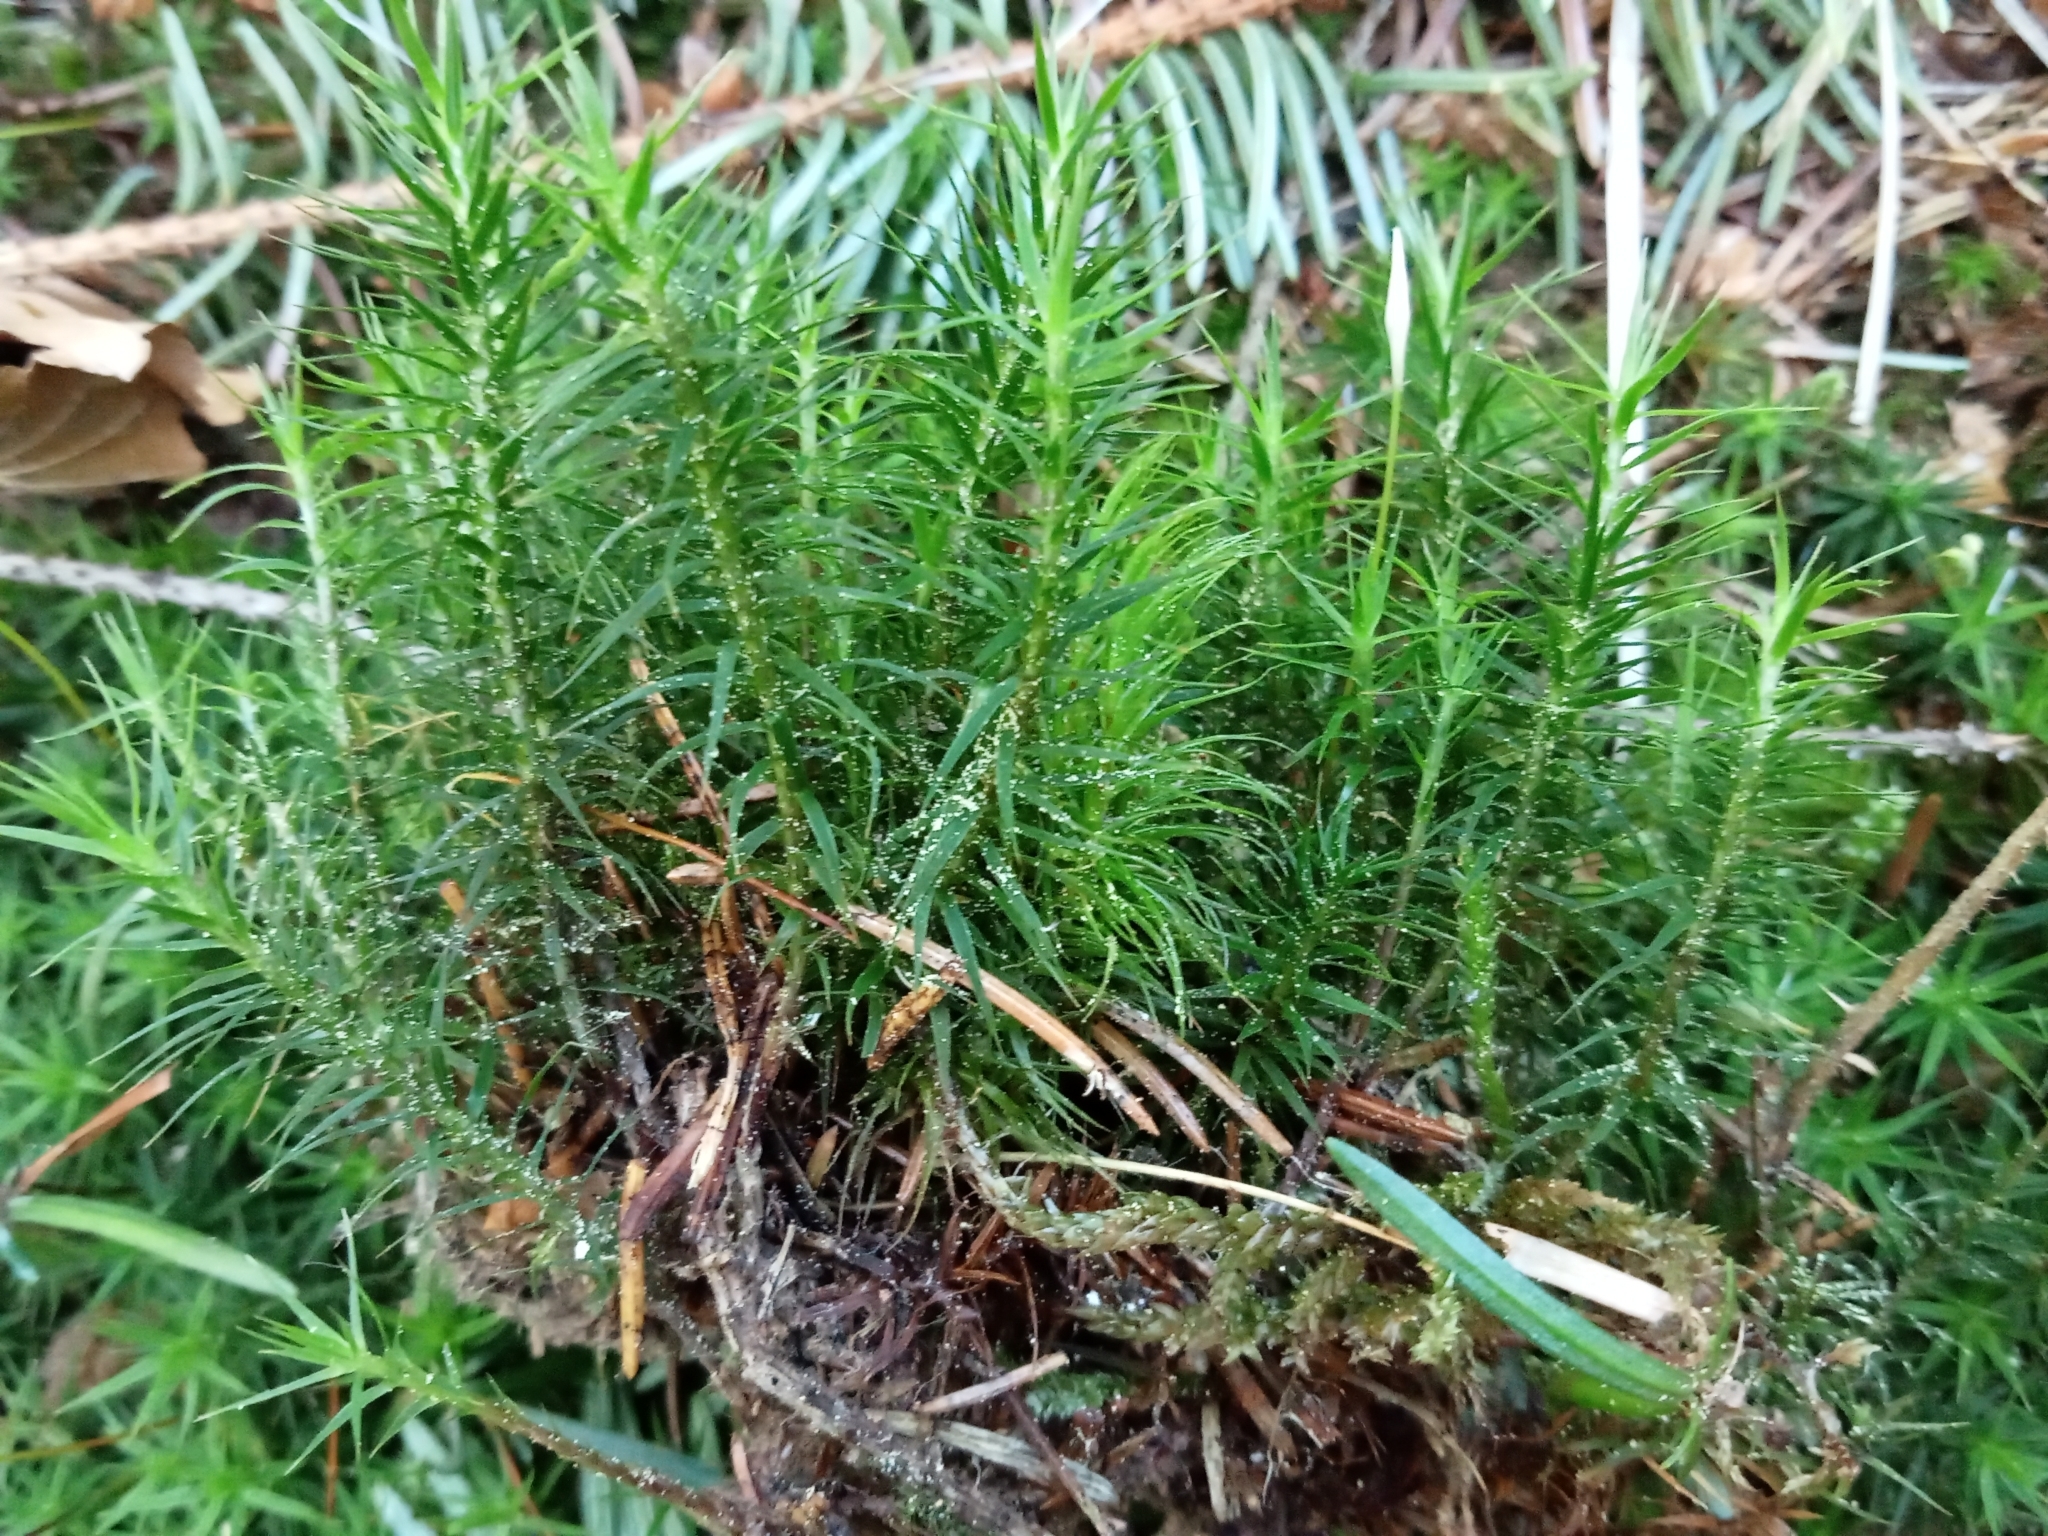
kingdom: Plantae
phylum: Bryophyta
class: Polytrichopsida
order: Polytrichales
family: Polytrichaceae
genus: Polytrichum
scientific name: Polytrichum formosum
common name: Bank haircap moss
